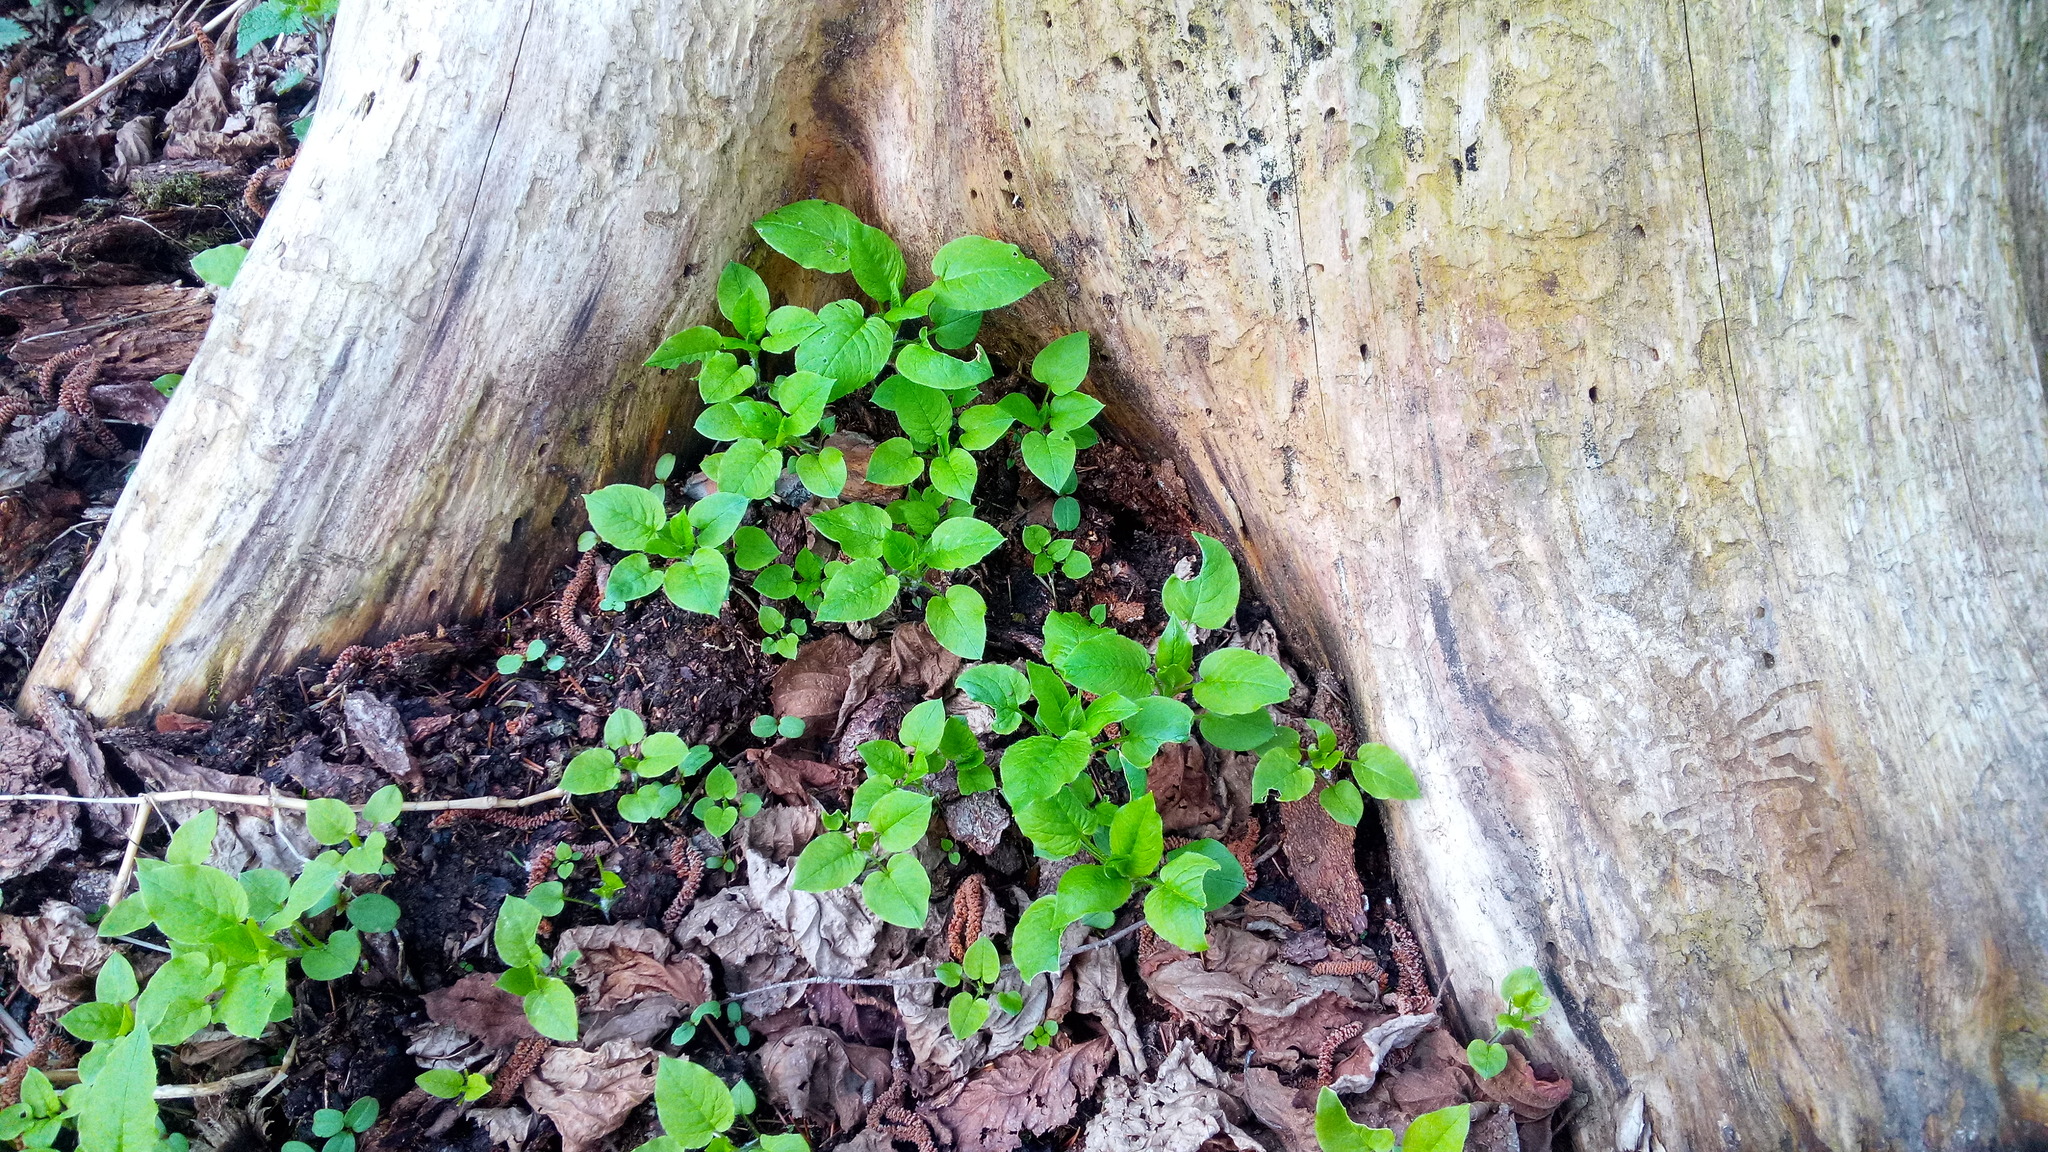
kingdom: Plantae
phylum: Tracheophyta
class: Magnoliopsida
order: Caryophyllales
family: Caryophyllaceae
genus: Stellaria
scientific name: Stellaria nemorum
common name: Wood stitchwort
